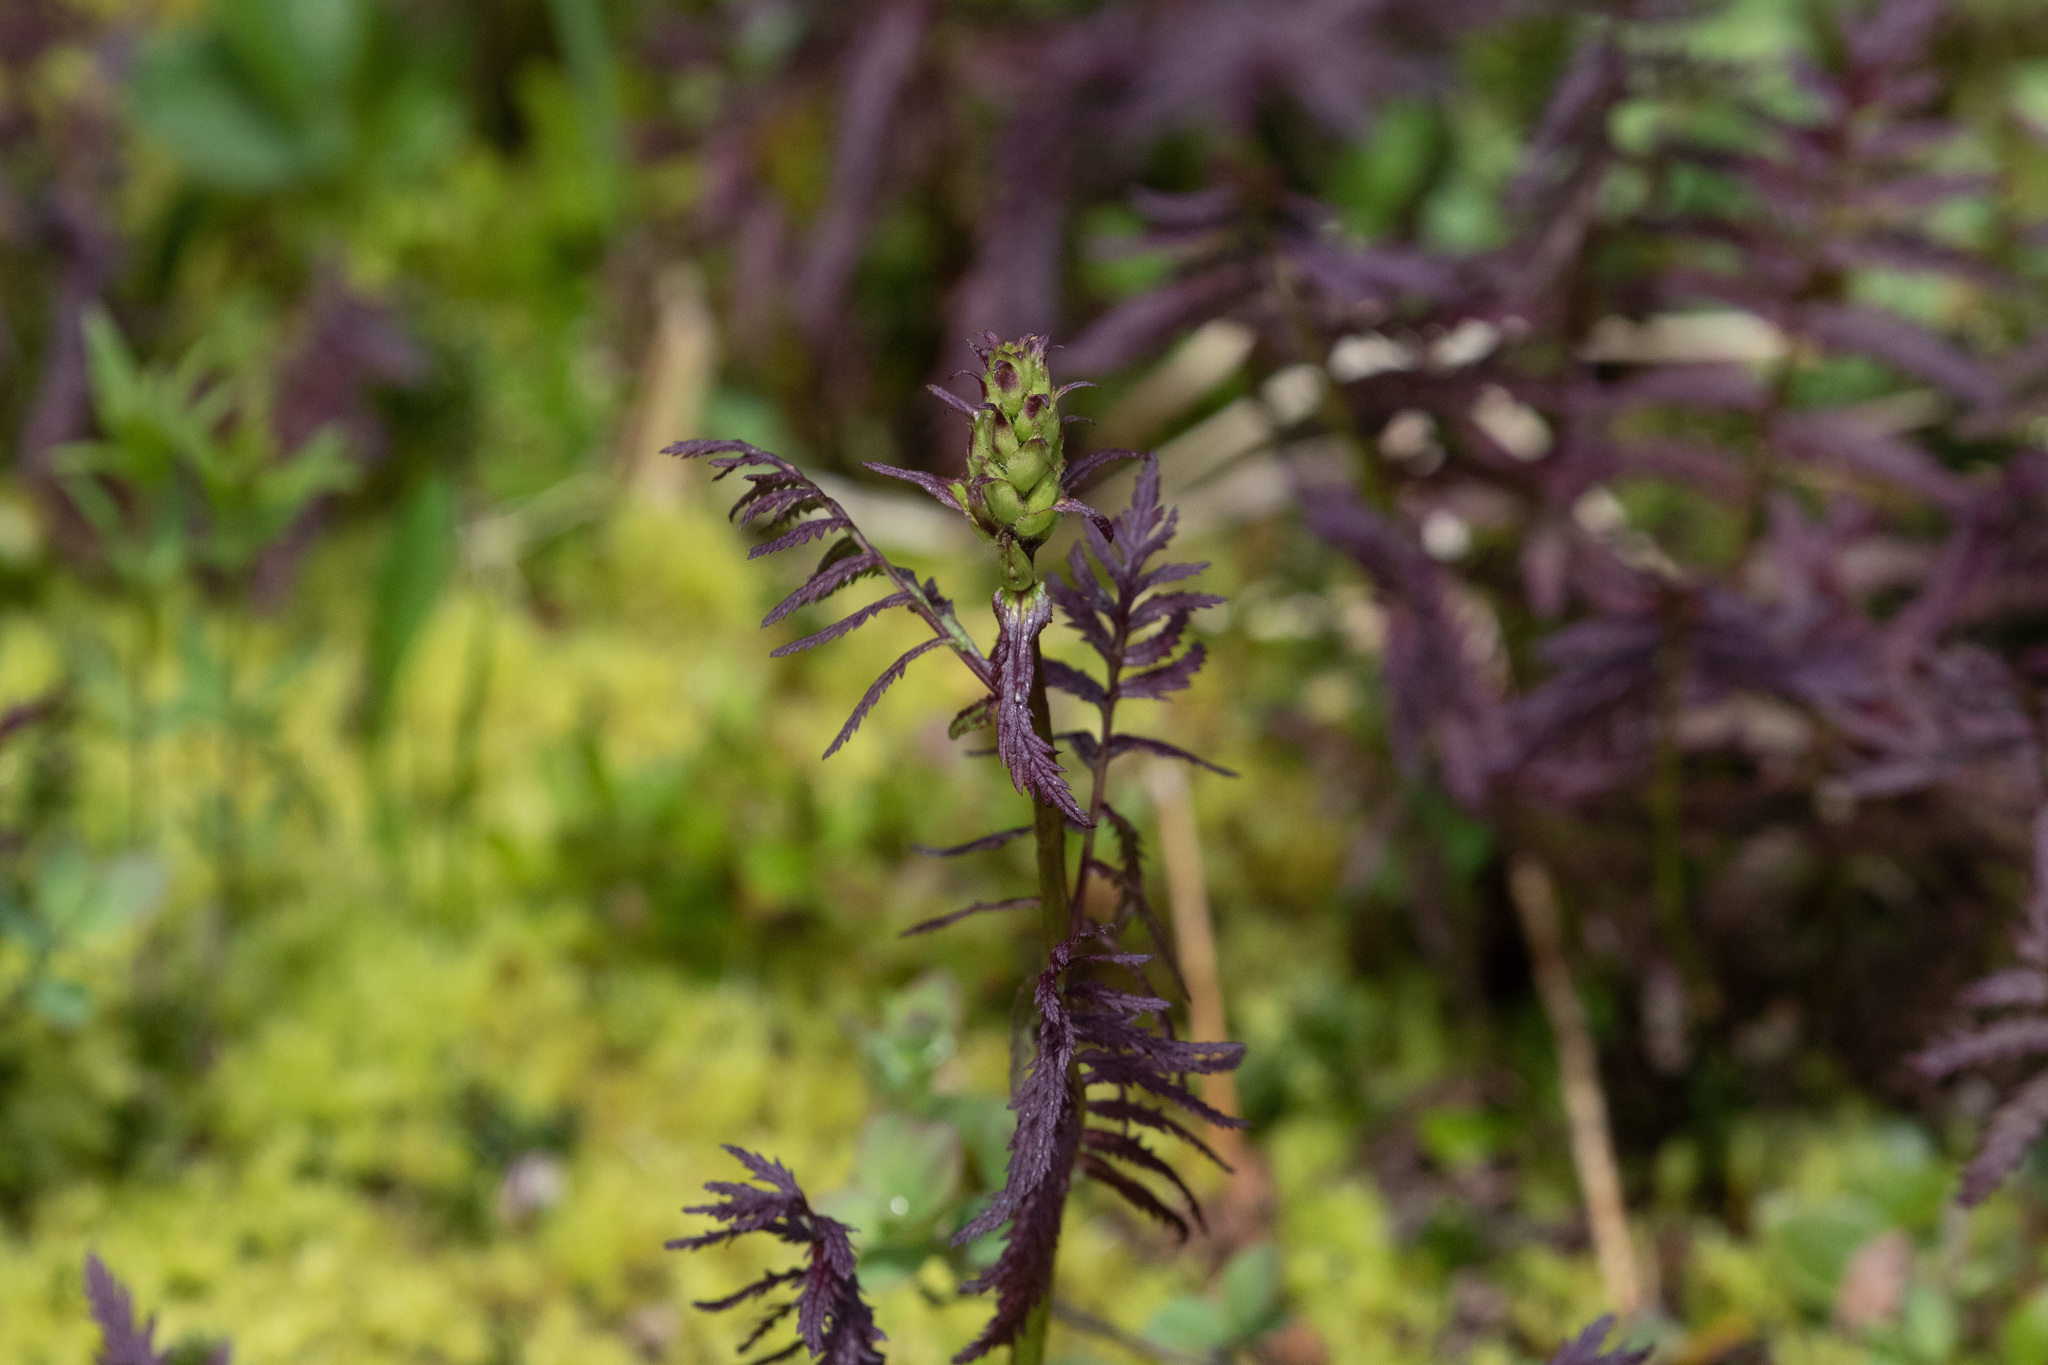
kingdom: Plantae
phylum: Tracheophyta
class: Magnoliopsida
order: Lamiales
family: Orobanchaceae
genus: Pedicularis
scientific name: Pedicularis bracteosa
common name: Bracted lousewort
